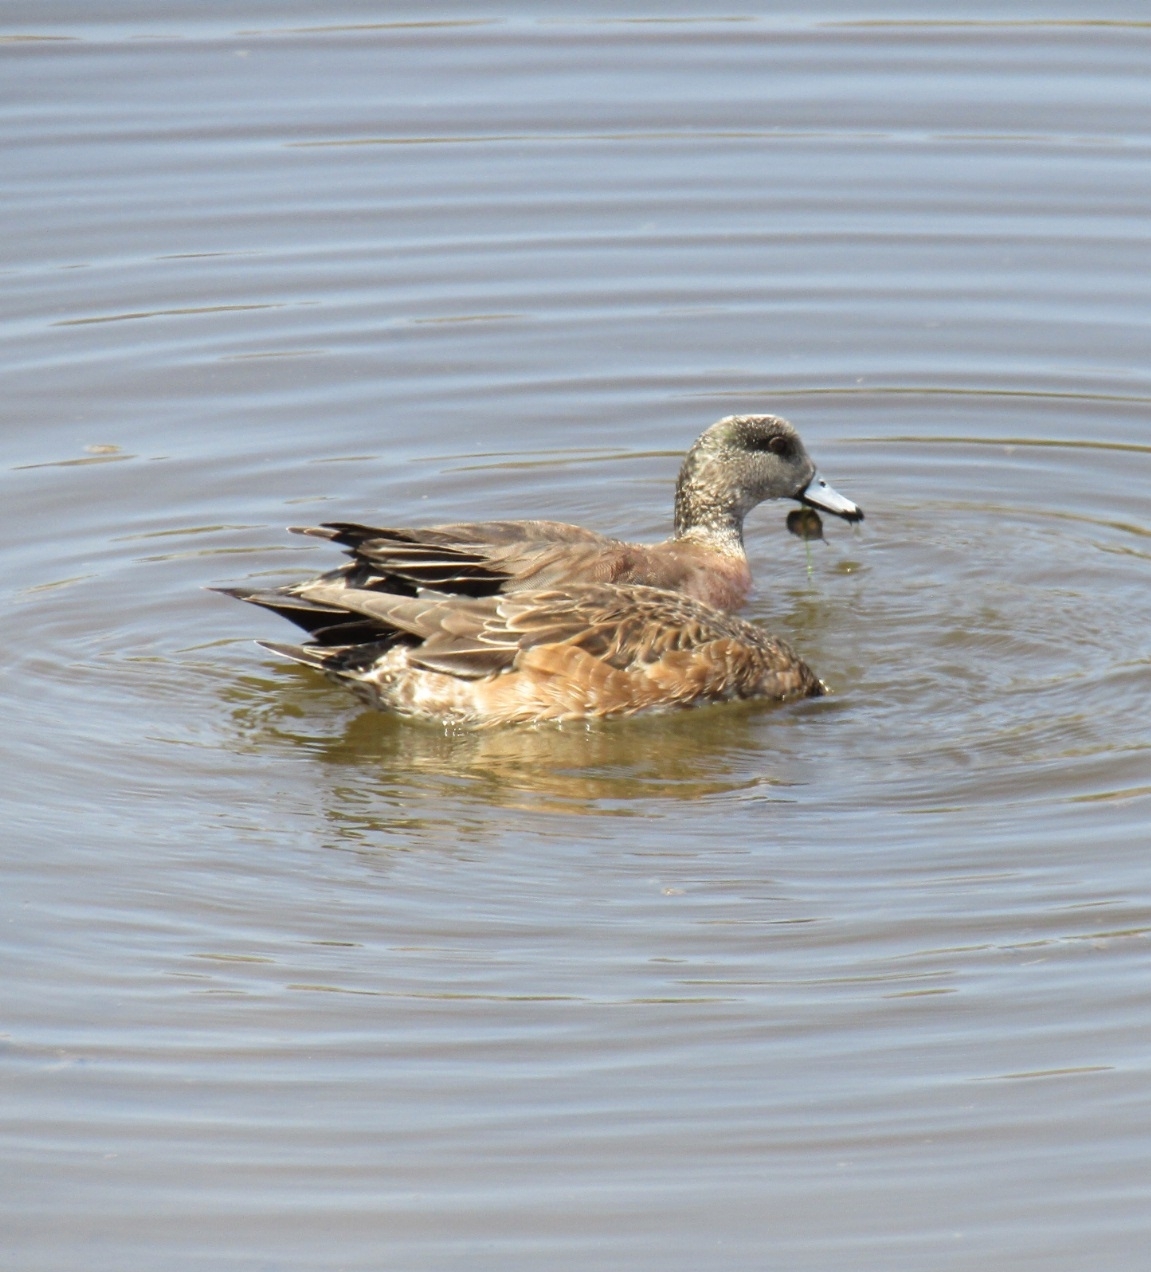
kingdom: Animalia
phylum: Chordata
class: Aves
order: Anseriformes
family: Anatidae
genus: Mareca
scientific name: Mareca americana
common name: American wigeon
